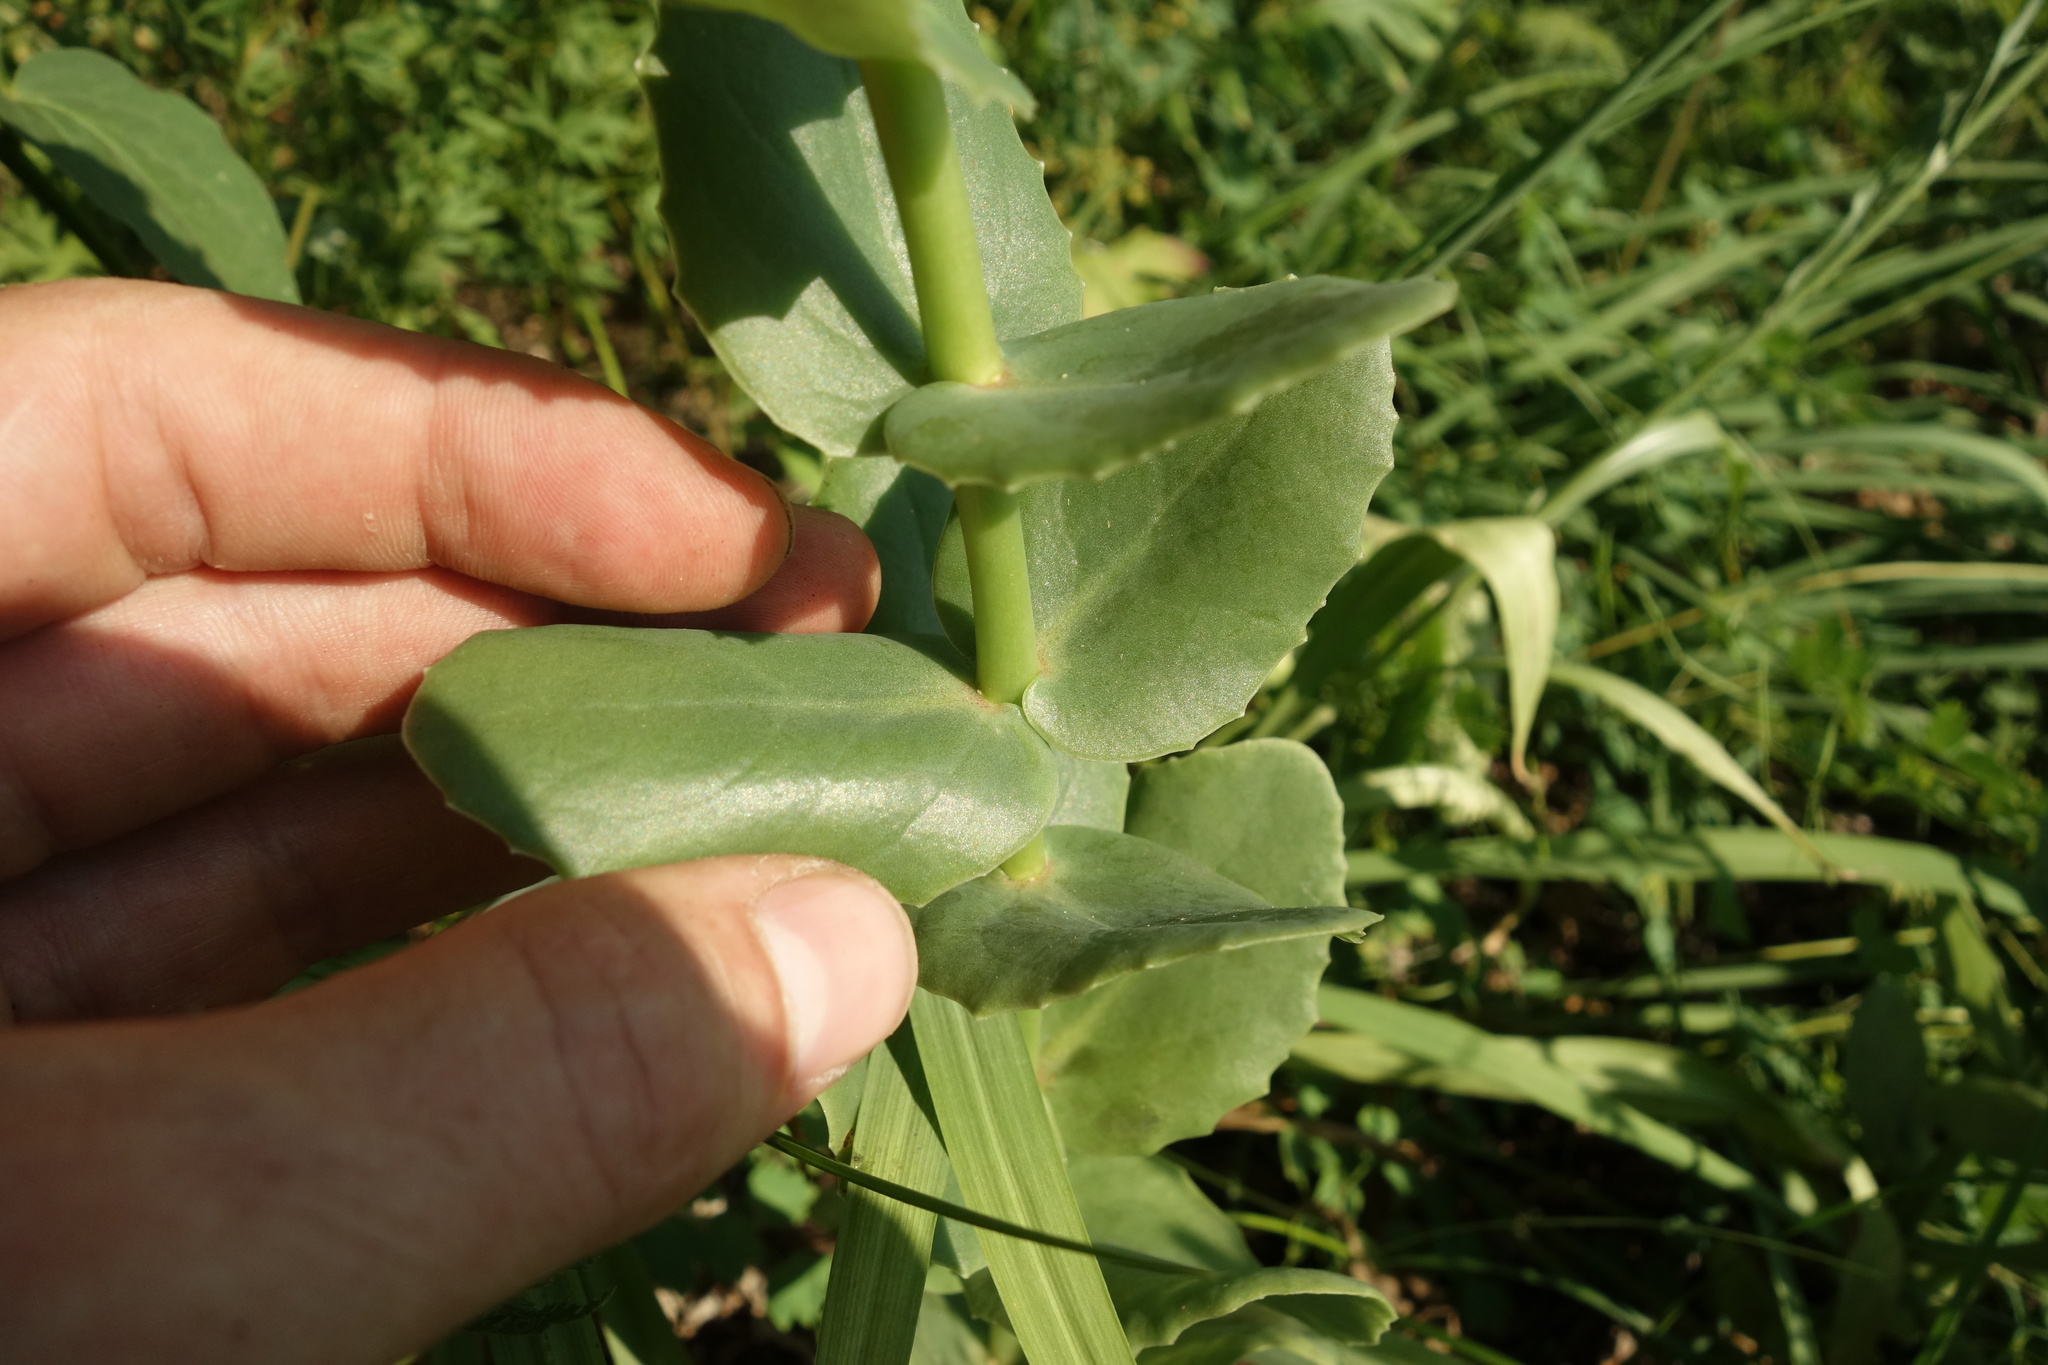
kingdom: Plantae
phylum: Tracheophyta
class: Magnoliopsida
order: Saxifragales
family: Crassulaceae
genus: Hylotelephium
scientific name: Hylotelephium maximum
